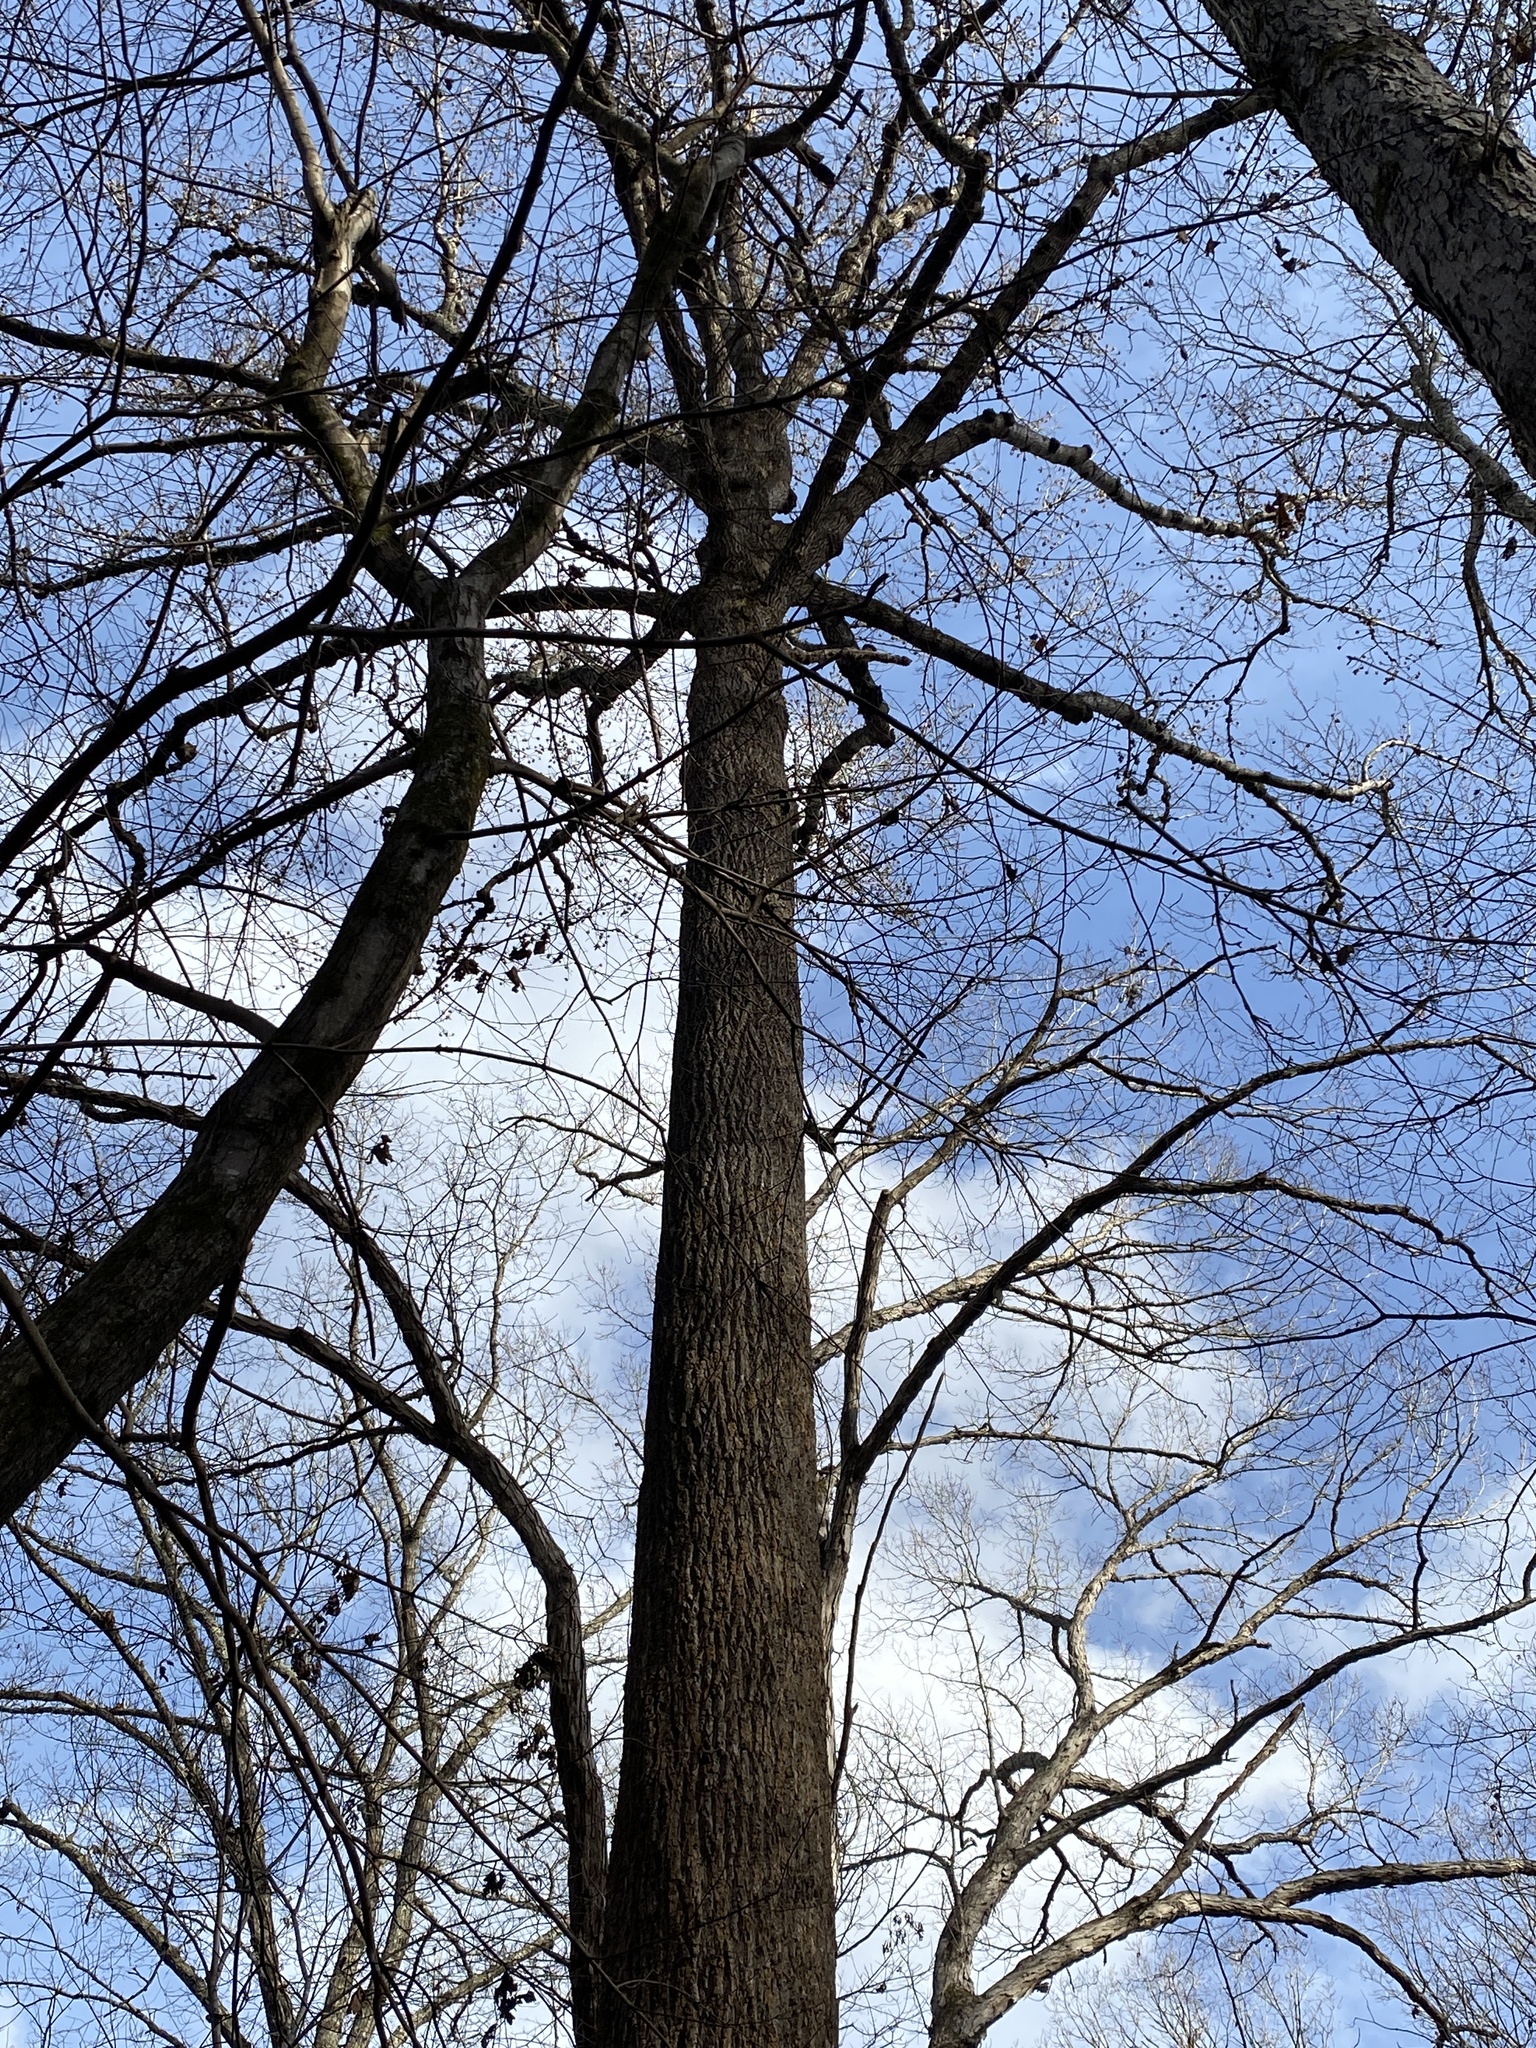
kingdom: Plantae
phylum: Tracheophyta
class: Magnoliopsida
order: Magnoliales
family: Magnoliaceae
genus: Liriodendron
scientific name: Liriodendron tulipifera
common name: Tulip tree
